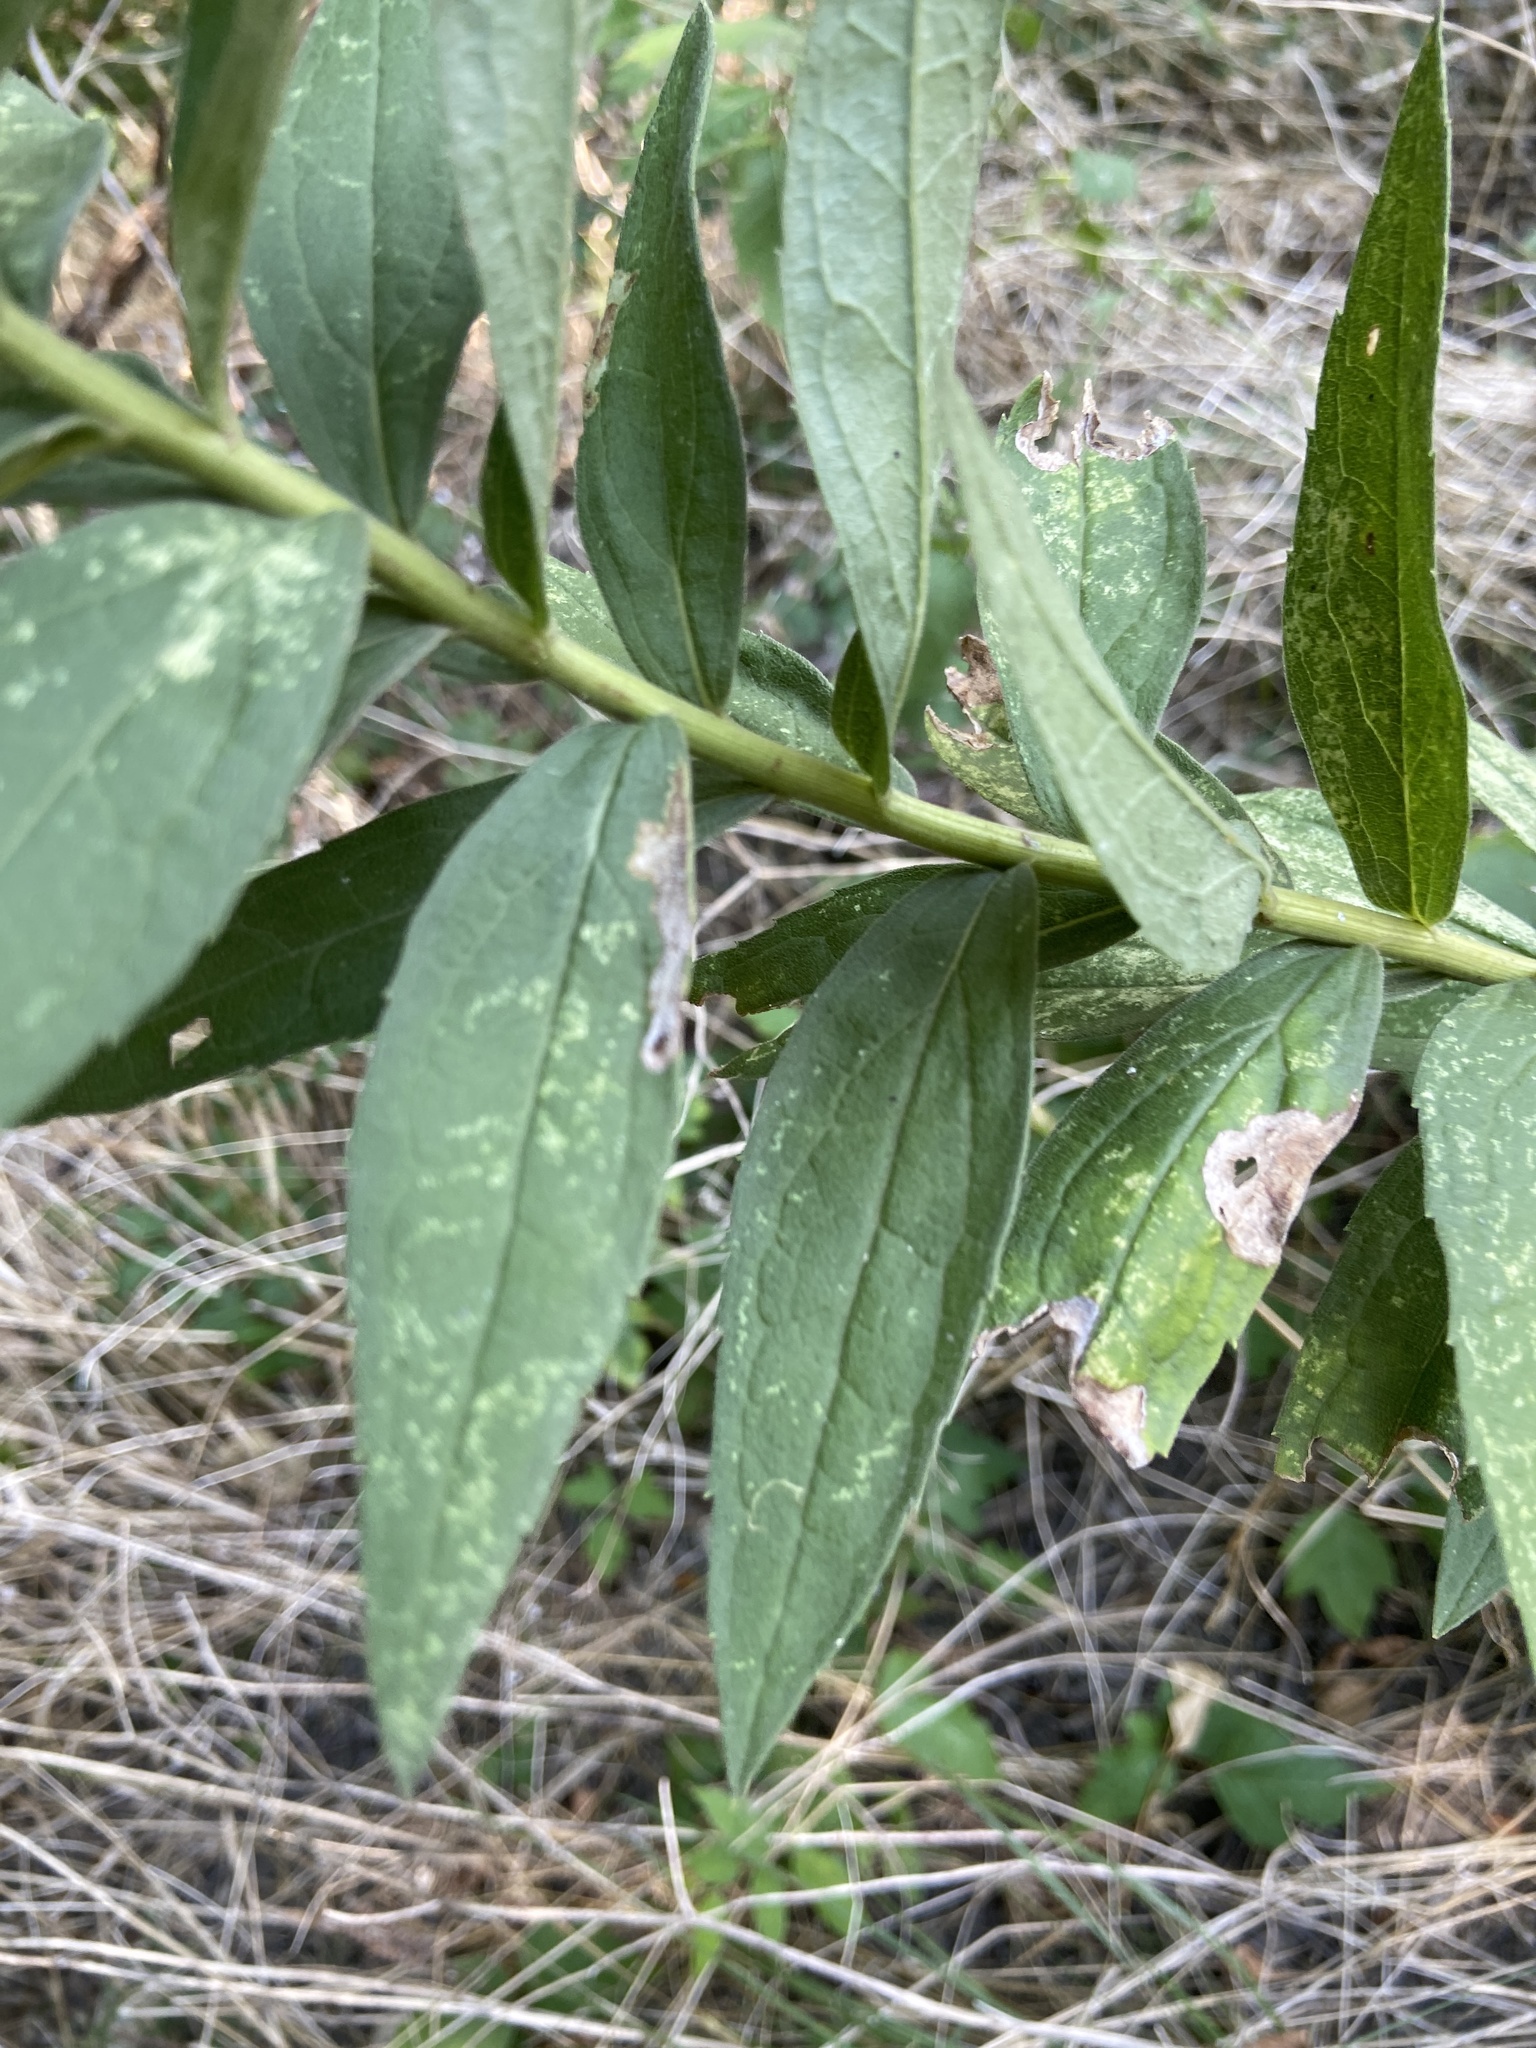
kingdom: Plantae
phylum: Tracheophyta
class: Magnoliopsida
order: Asterales
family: Asteraceae
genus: Solidago
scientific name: Solidago altissima
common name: Late goldenrod
